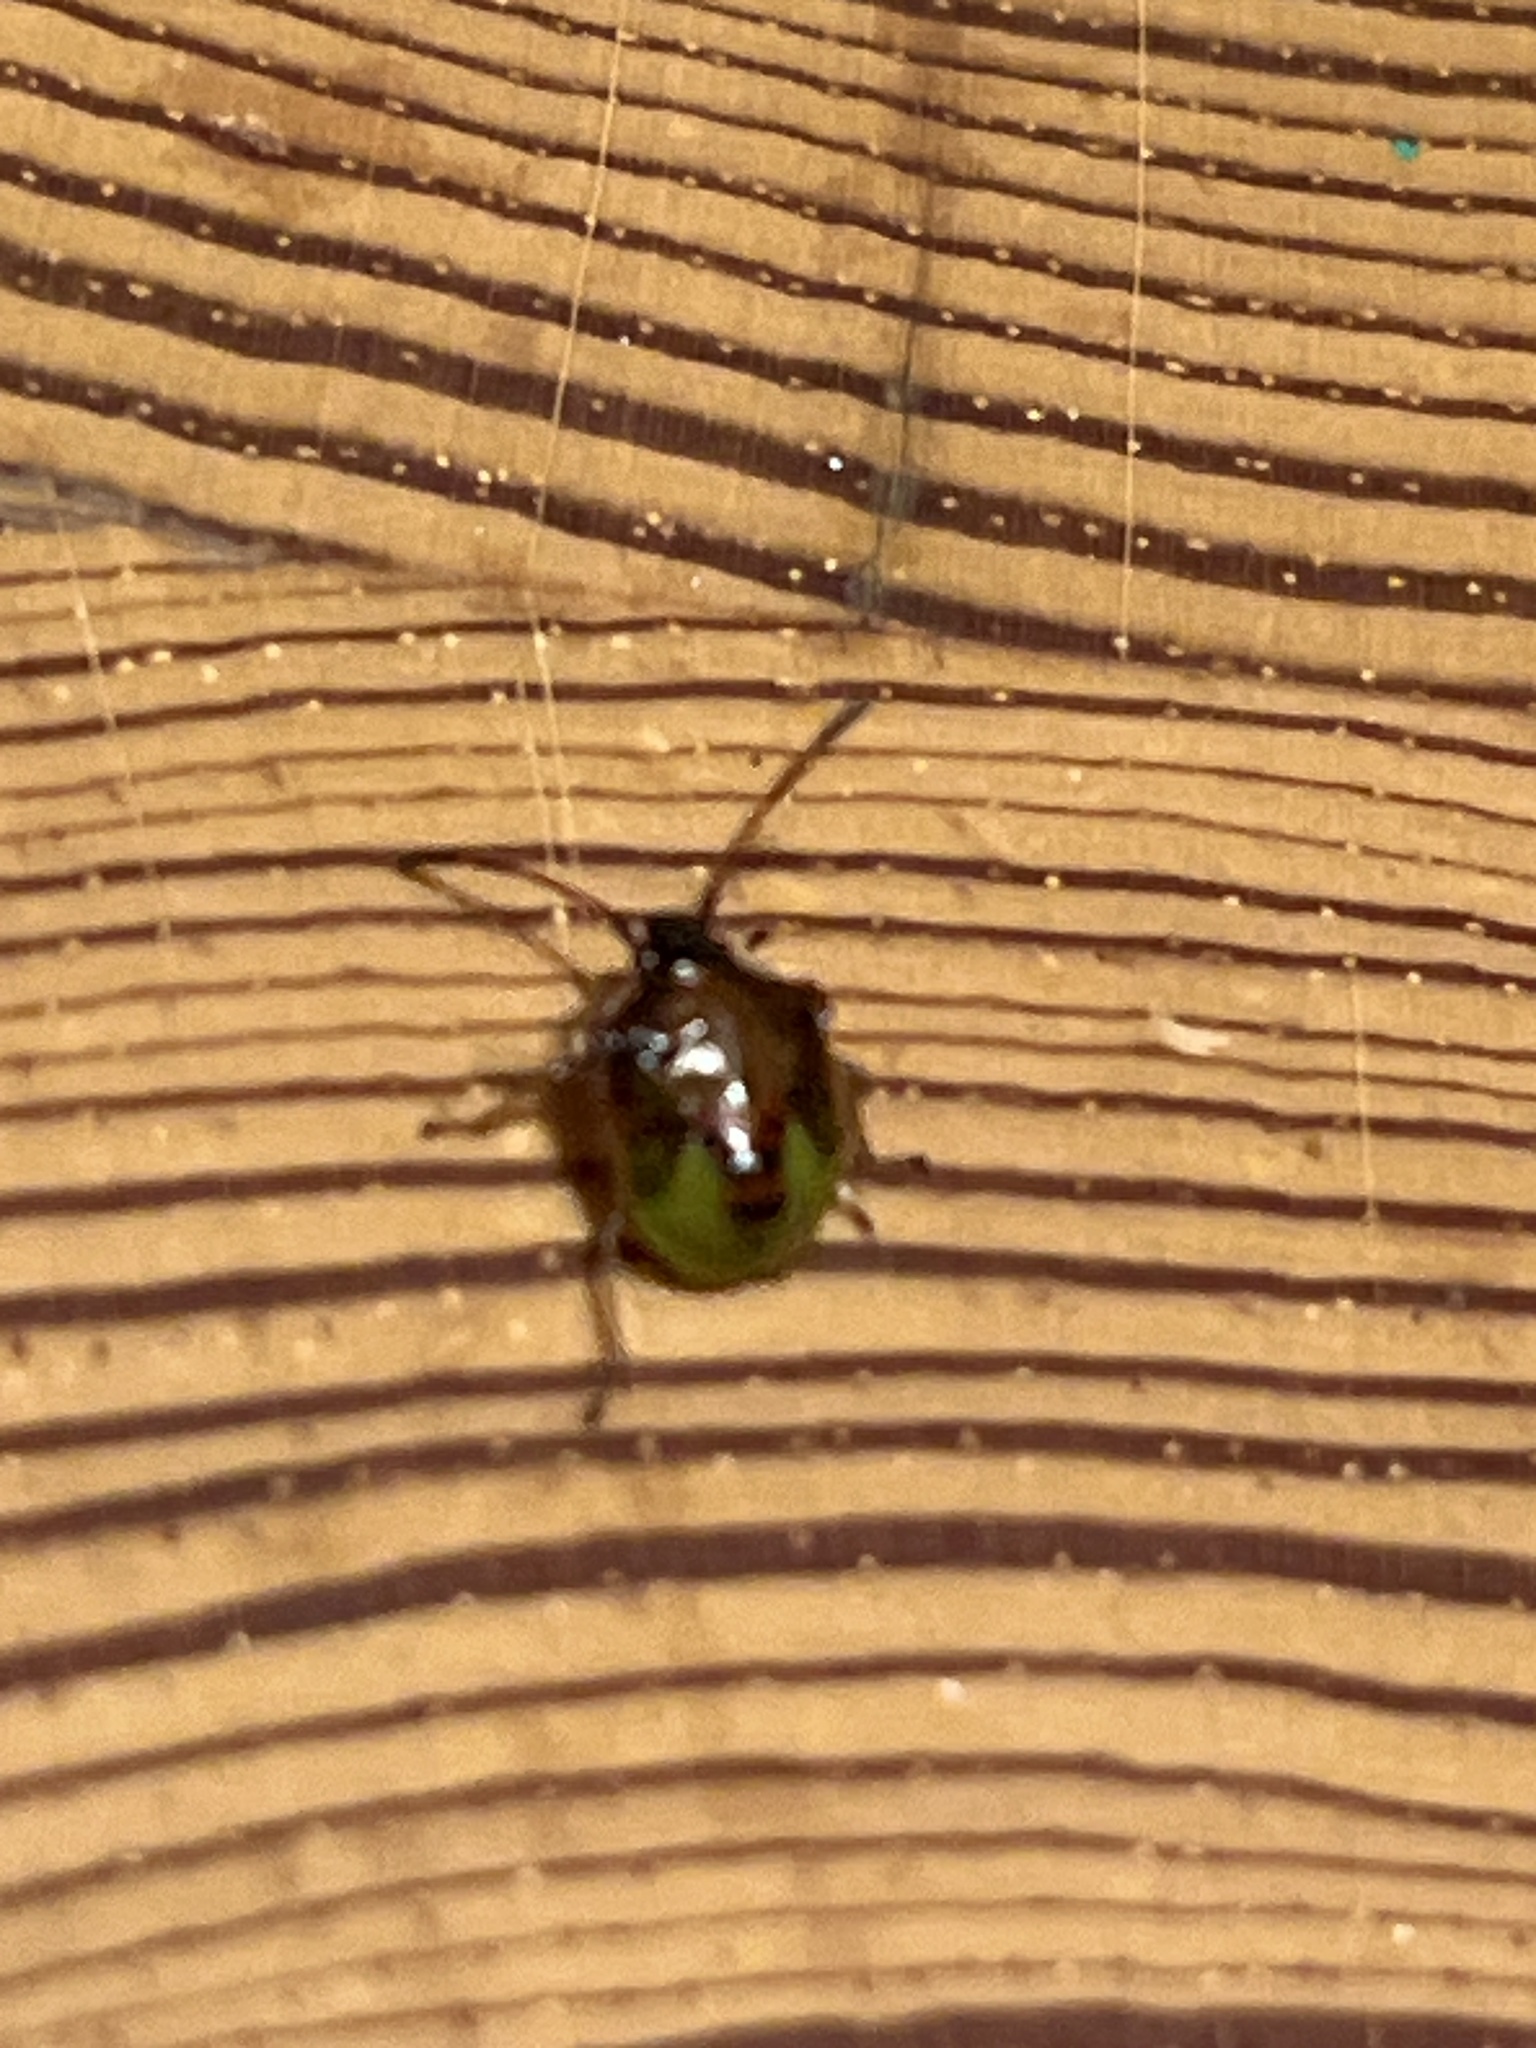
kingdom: Animalia
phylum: Arthropoda
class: Insecta
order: Hemiptera
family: Acanthosomatidae
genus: Elasmucha
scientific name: Elasmucha ferrugata
